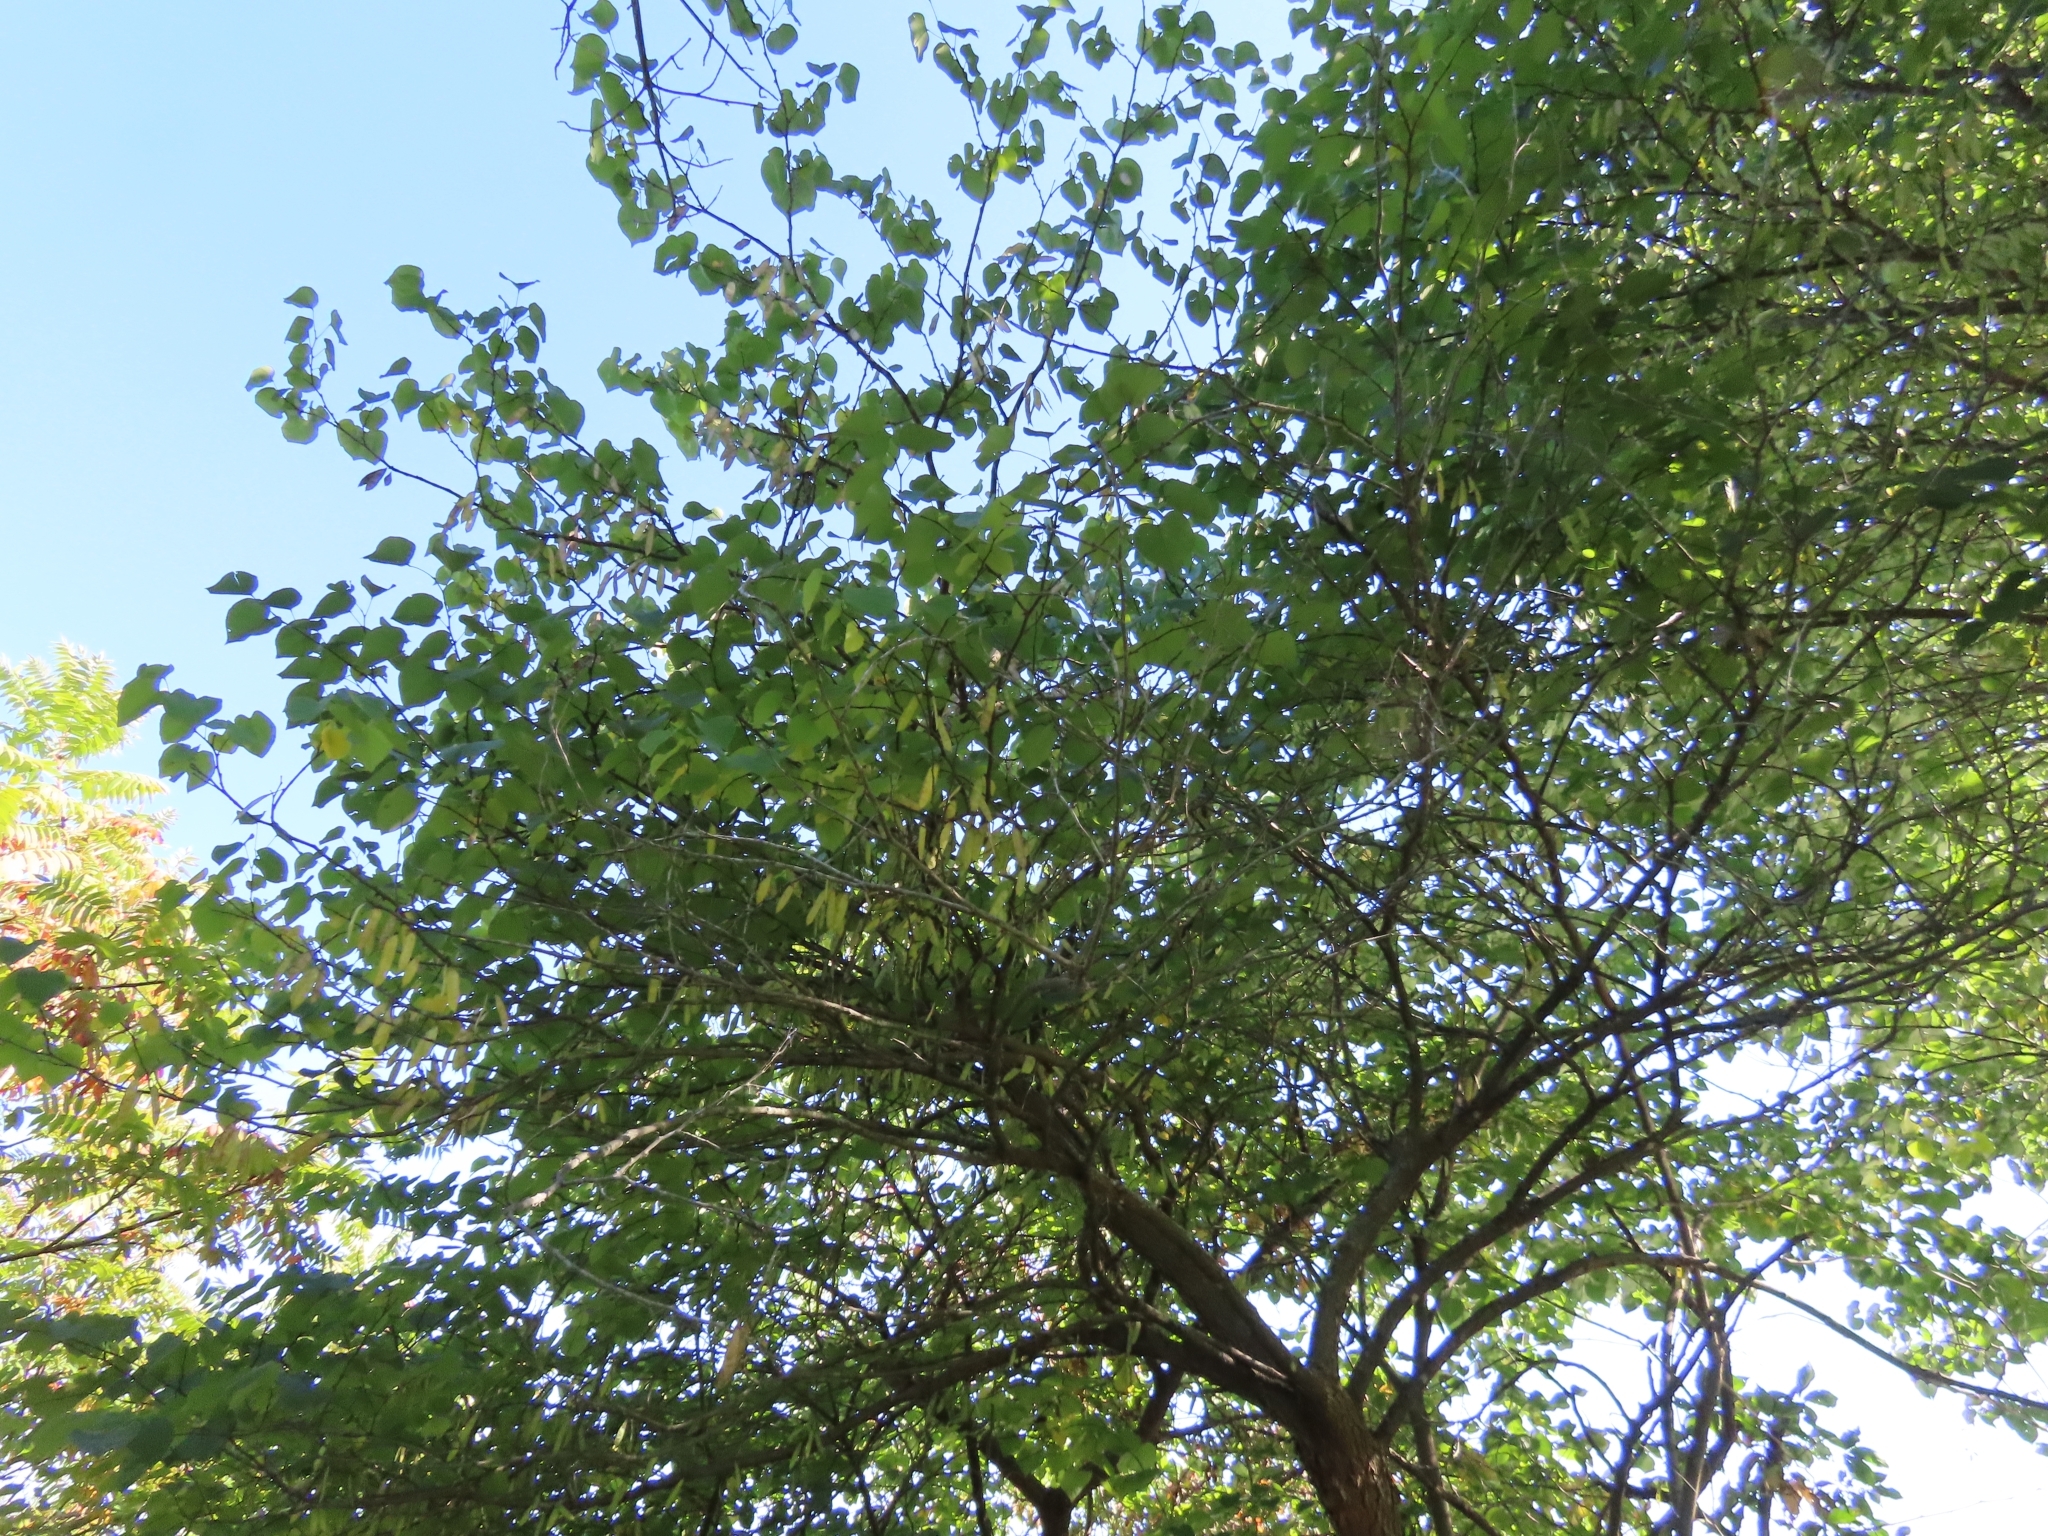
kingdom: Plantae
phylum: Tracheophyta
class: Magnoliopsida
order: Fabales
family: Fabaceae
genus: Cercis
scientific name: Cercis canadensis
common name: Eastern redbud
